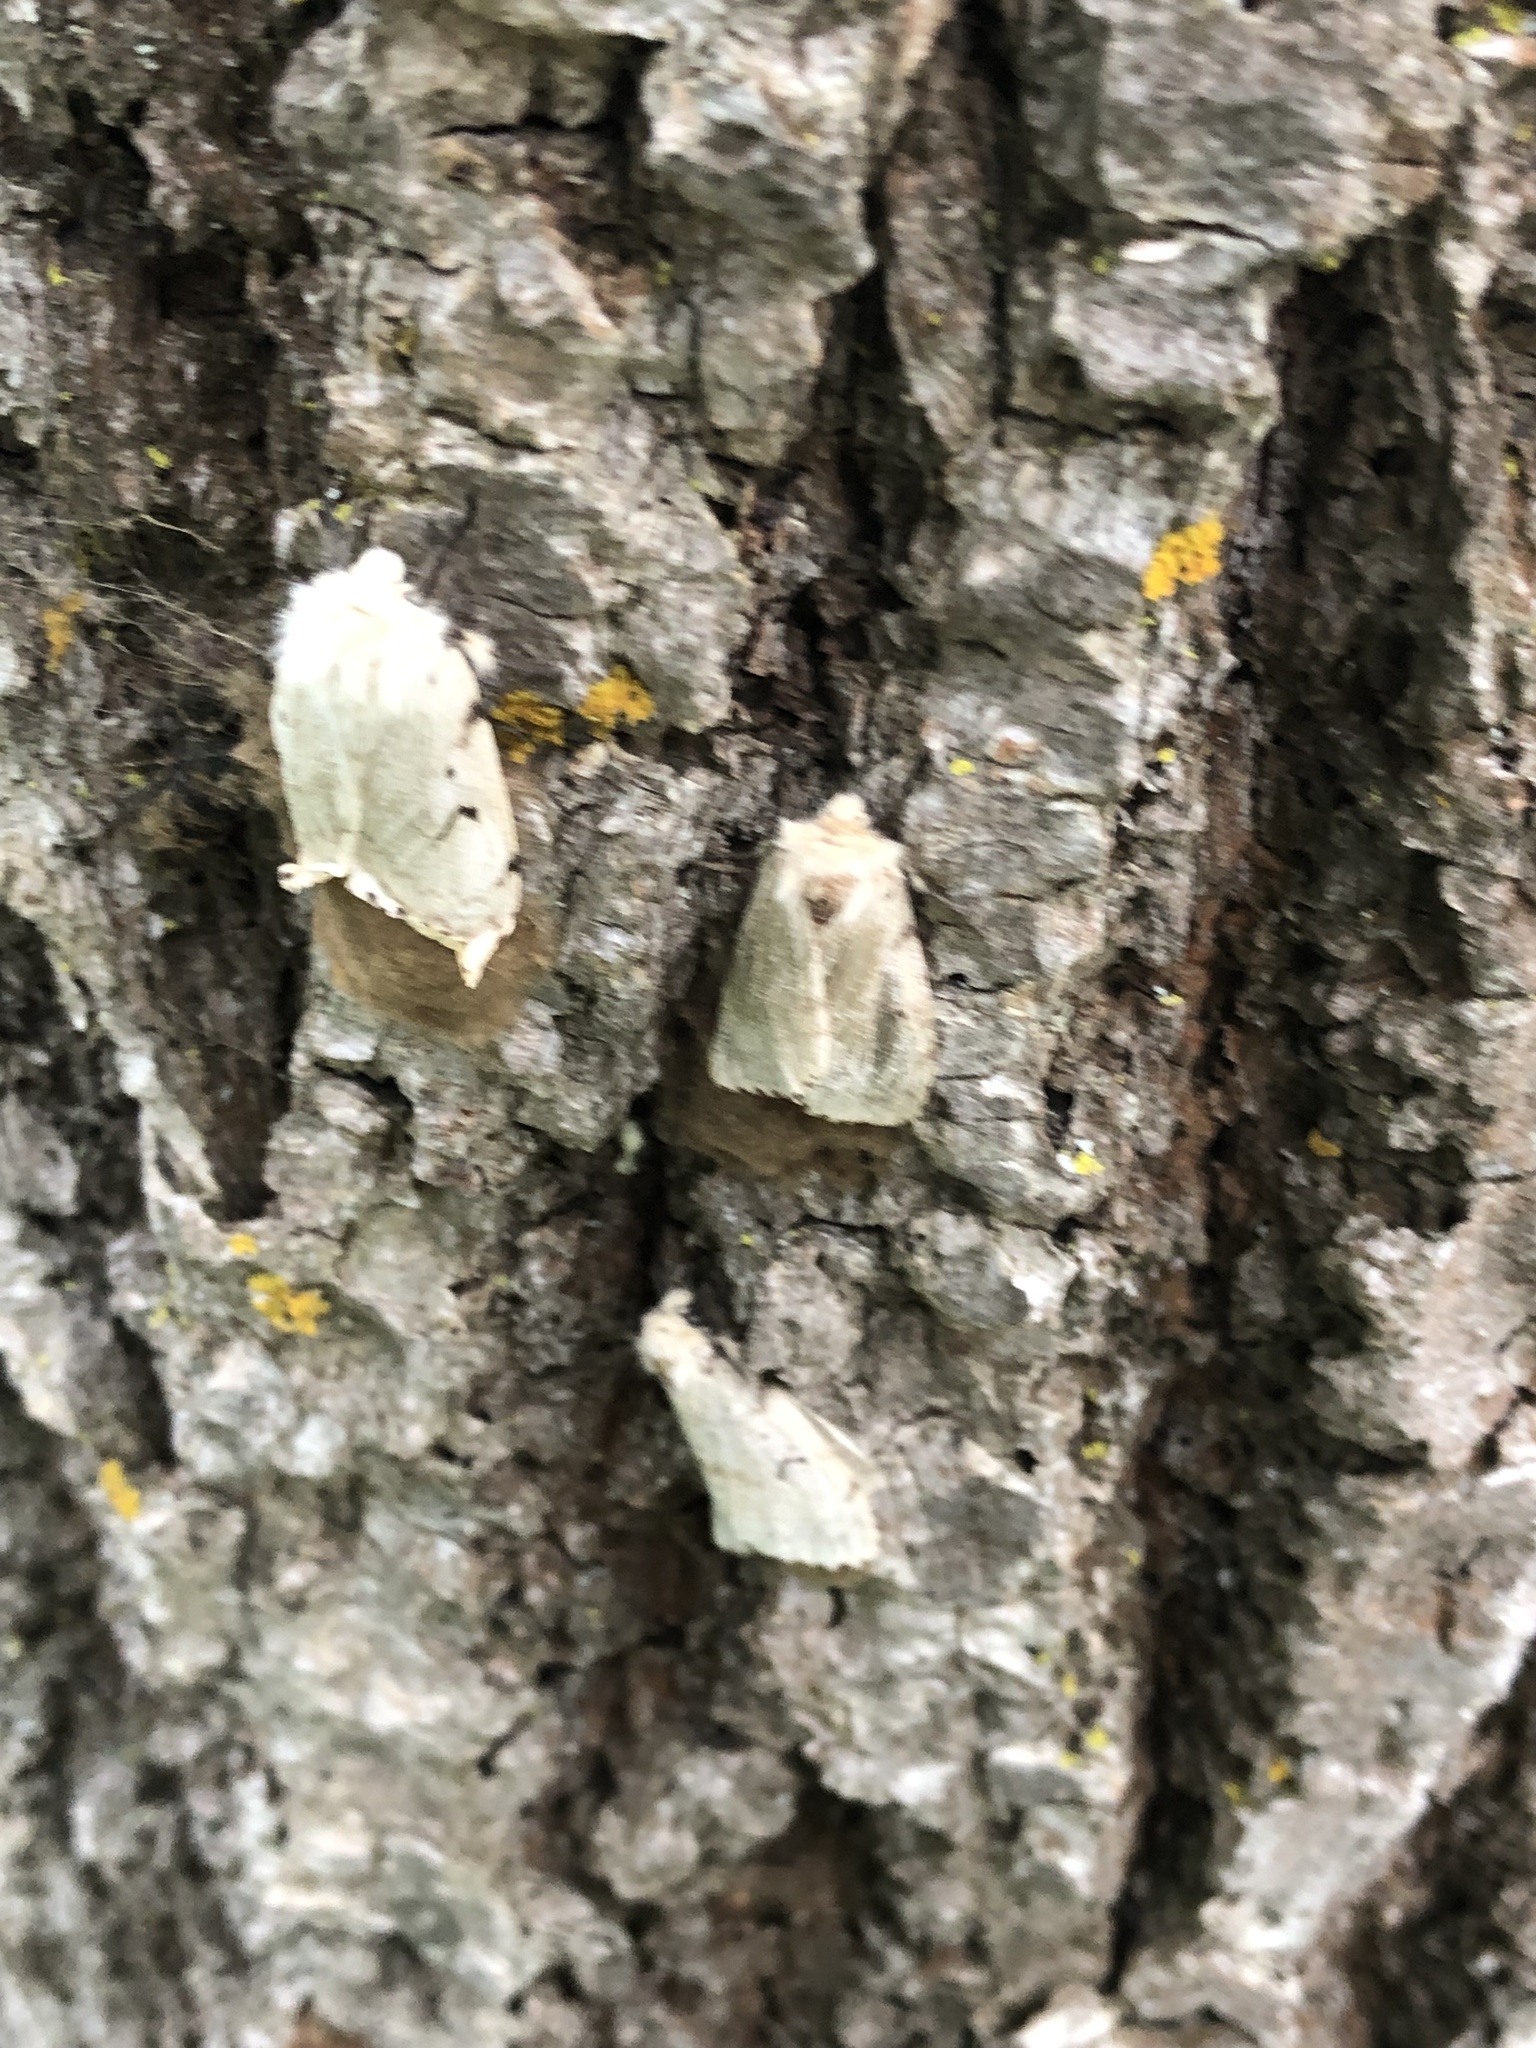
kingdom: Animalia
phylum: Arthropoda
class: Insecta
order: Lepidoptera
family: Erebidae
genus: Lymantria
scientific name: Lymantria dispar
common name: Gypsy moth
